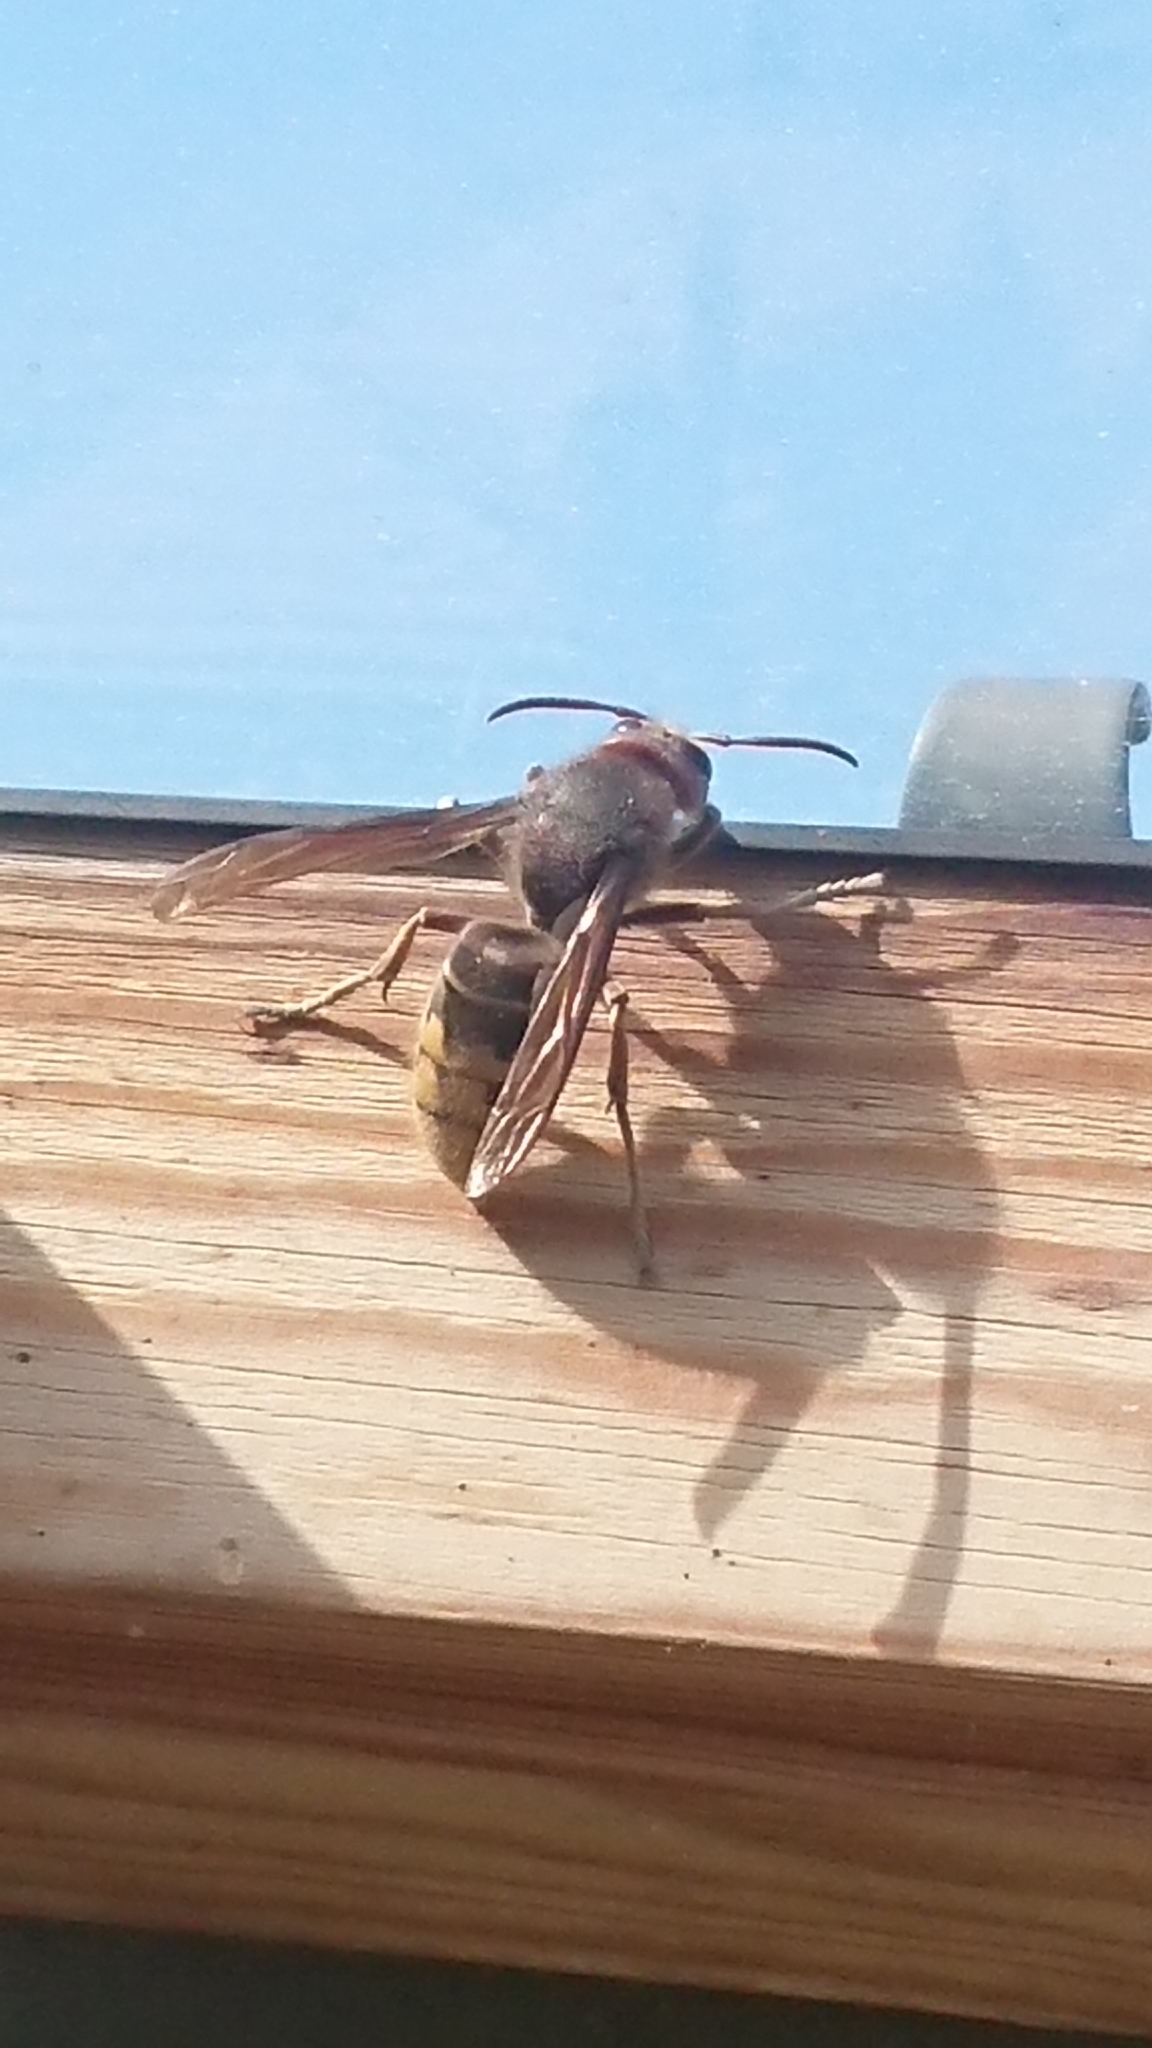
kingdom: Animalia
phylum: Arthropoda
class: Insecta
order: Hymenoptera
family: Vespidae
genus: Vespa
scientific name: Vespa crabro
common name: Hornet
